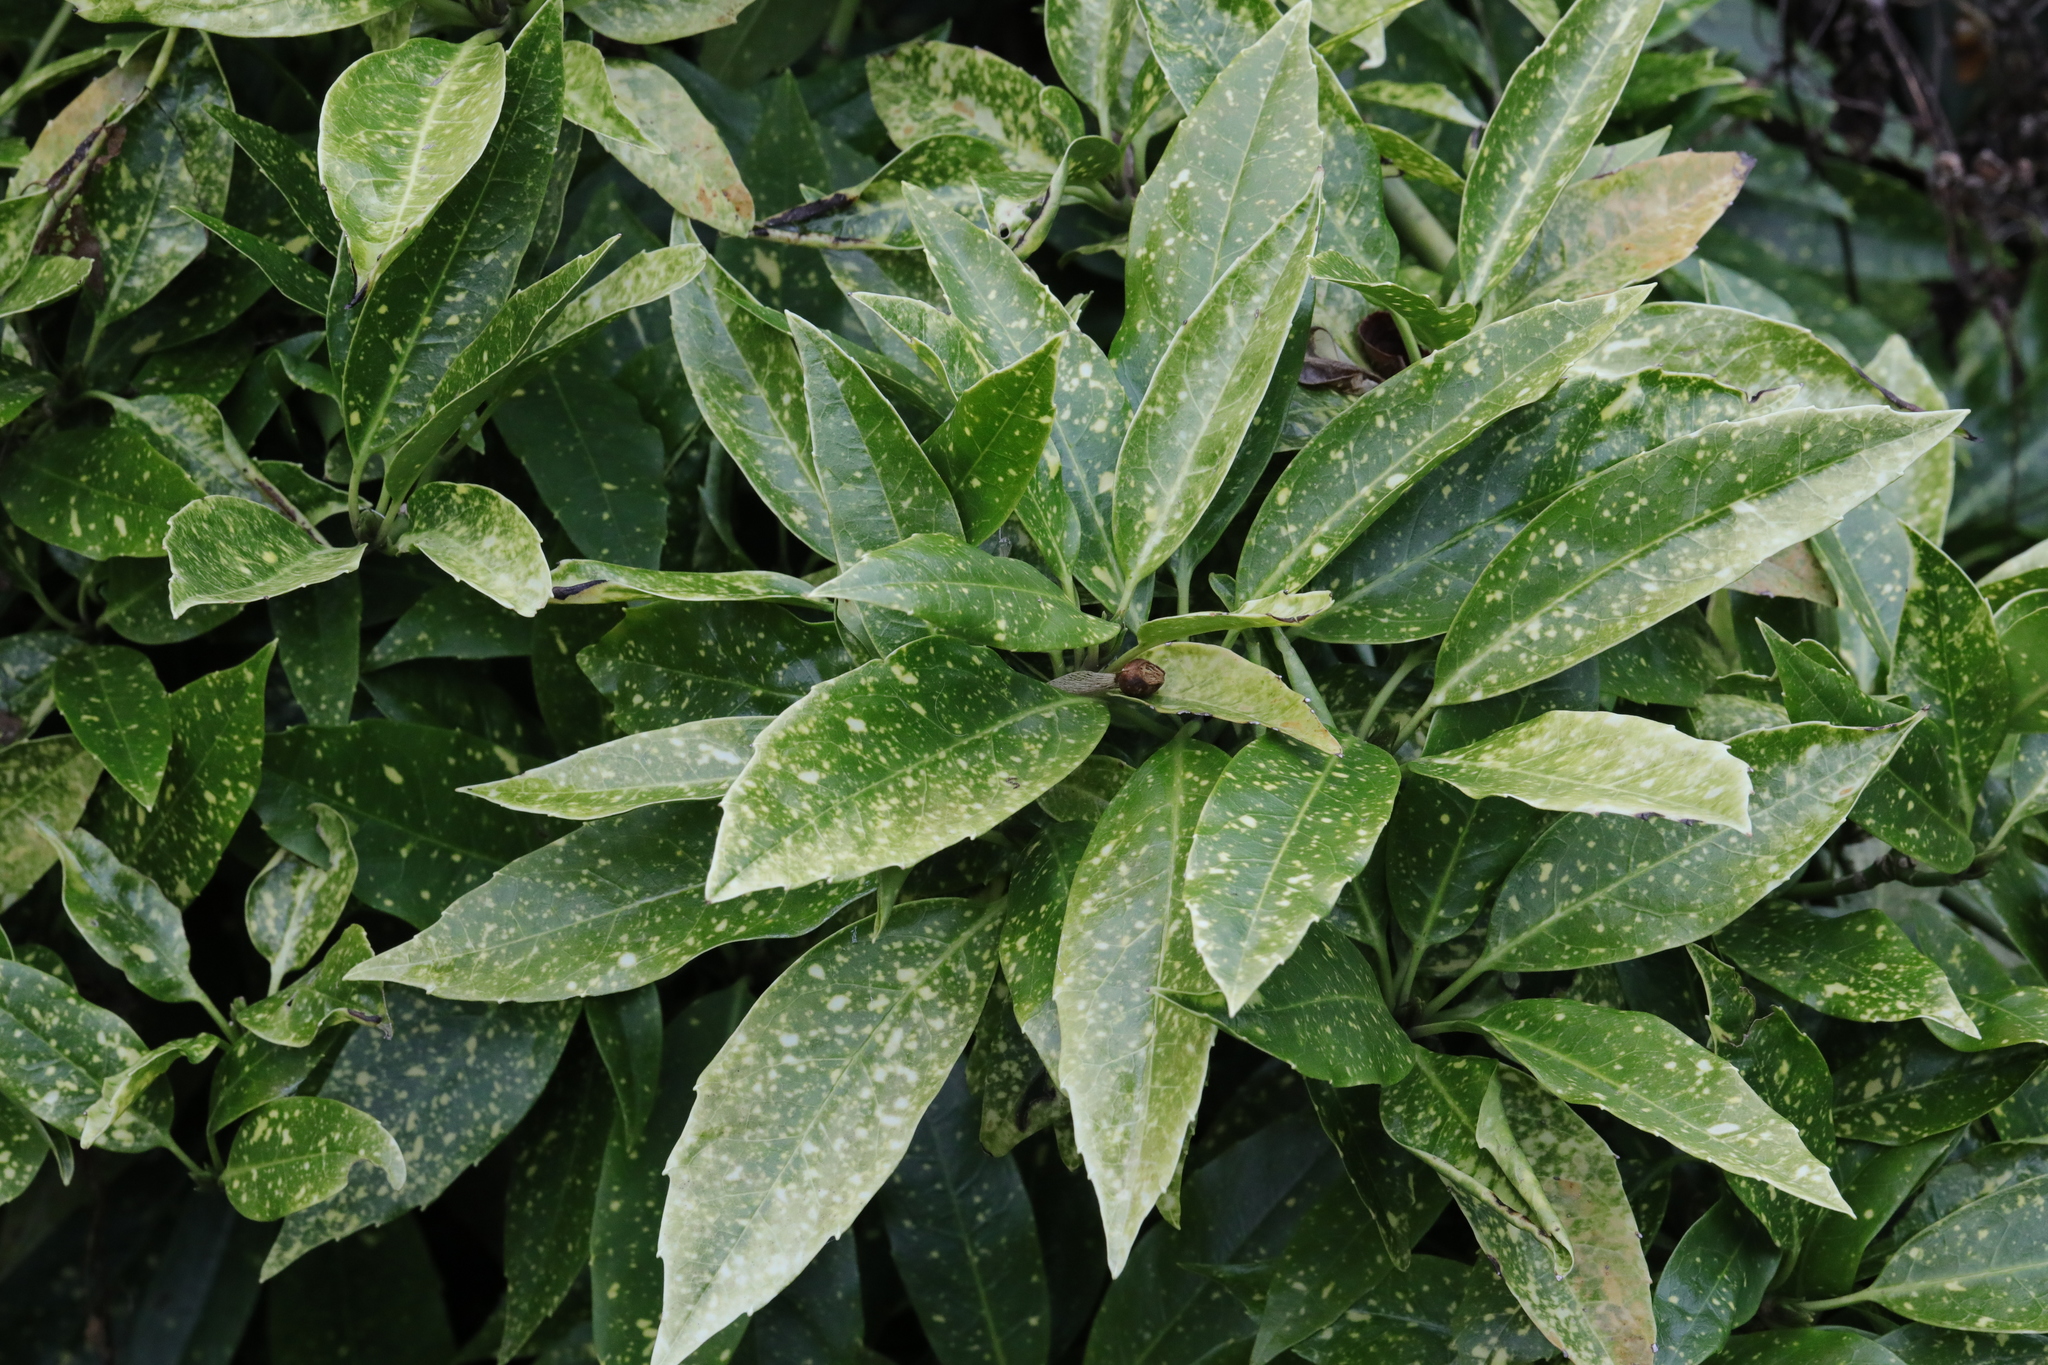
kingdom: Plantae
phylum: Tracheophyta
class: Magnoliopsida
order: Garryales
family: Garryaceae
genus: Aucuba
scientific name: Aucuba japonica
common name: Spotted-laurel
